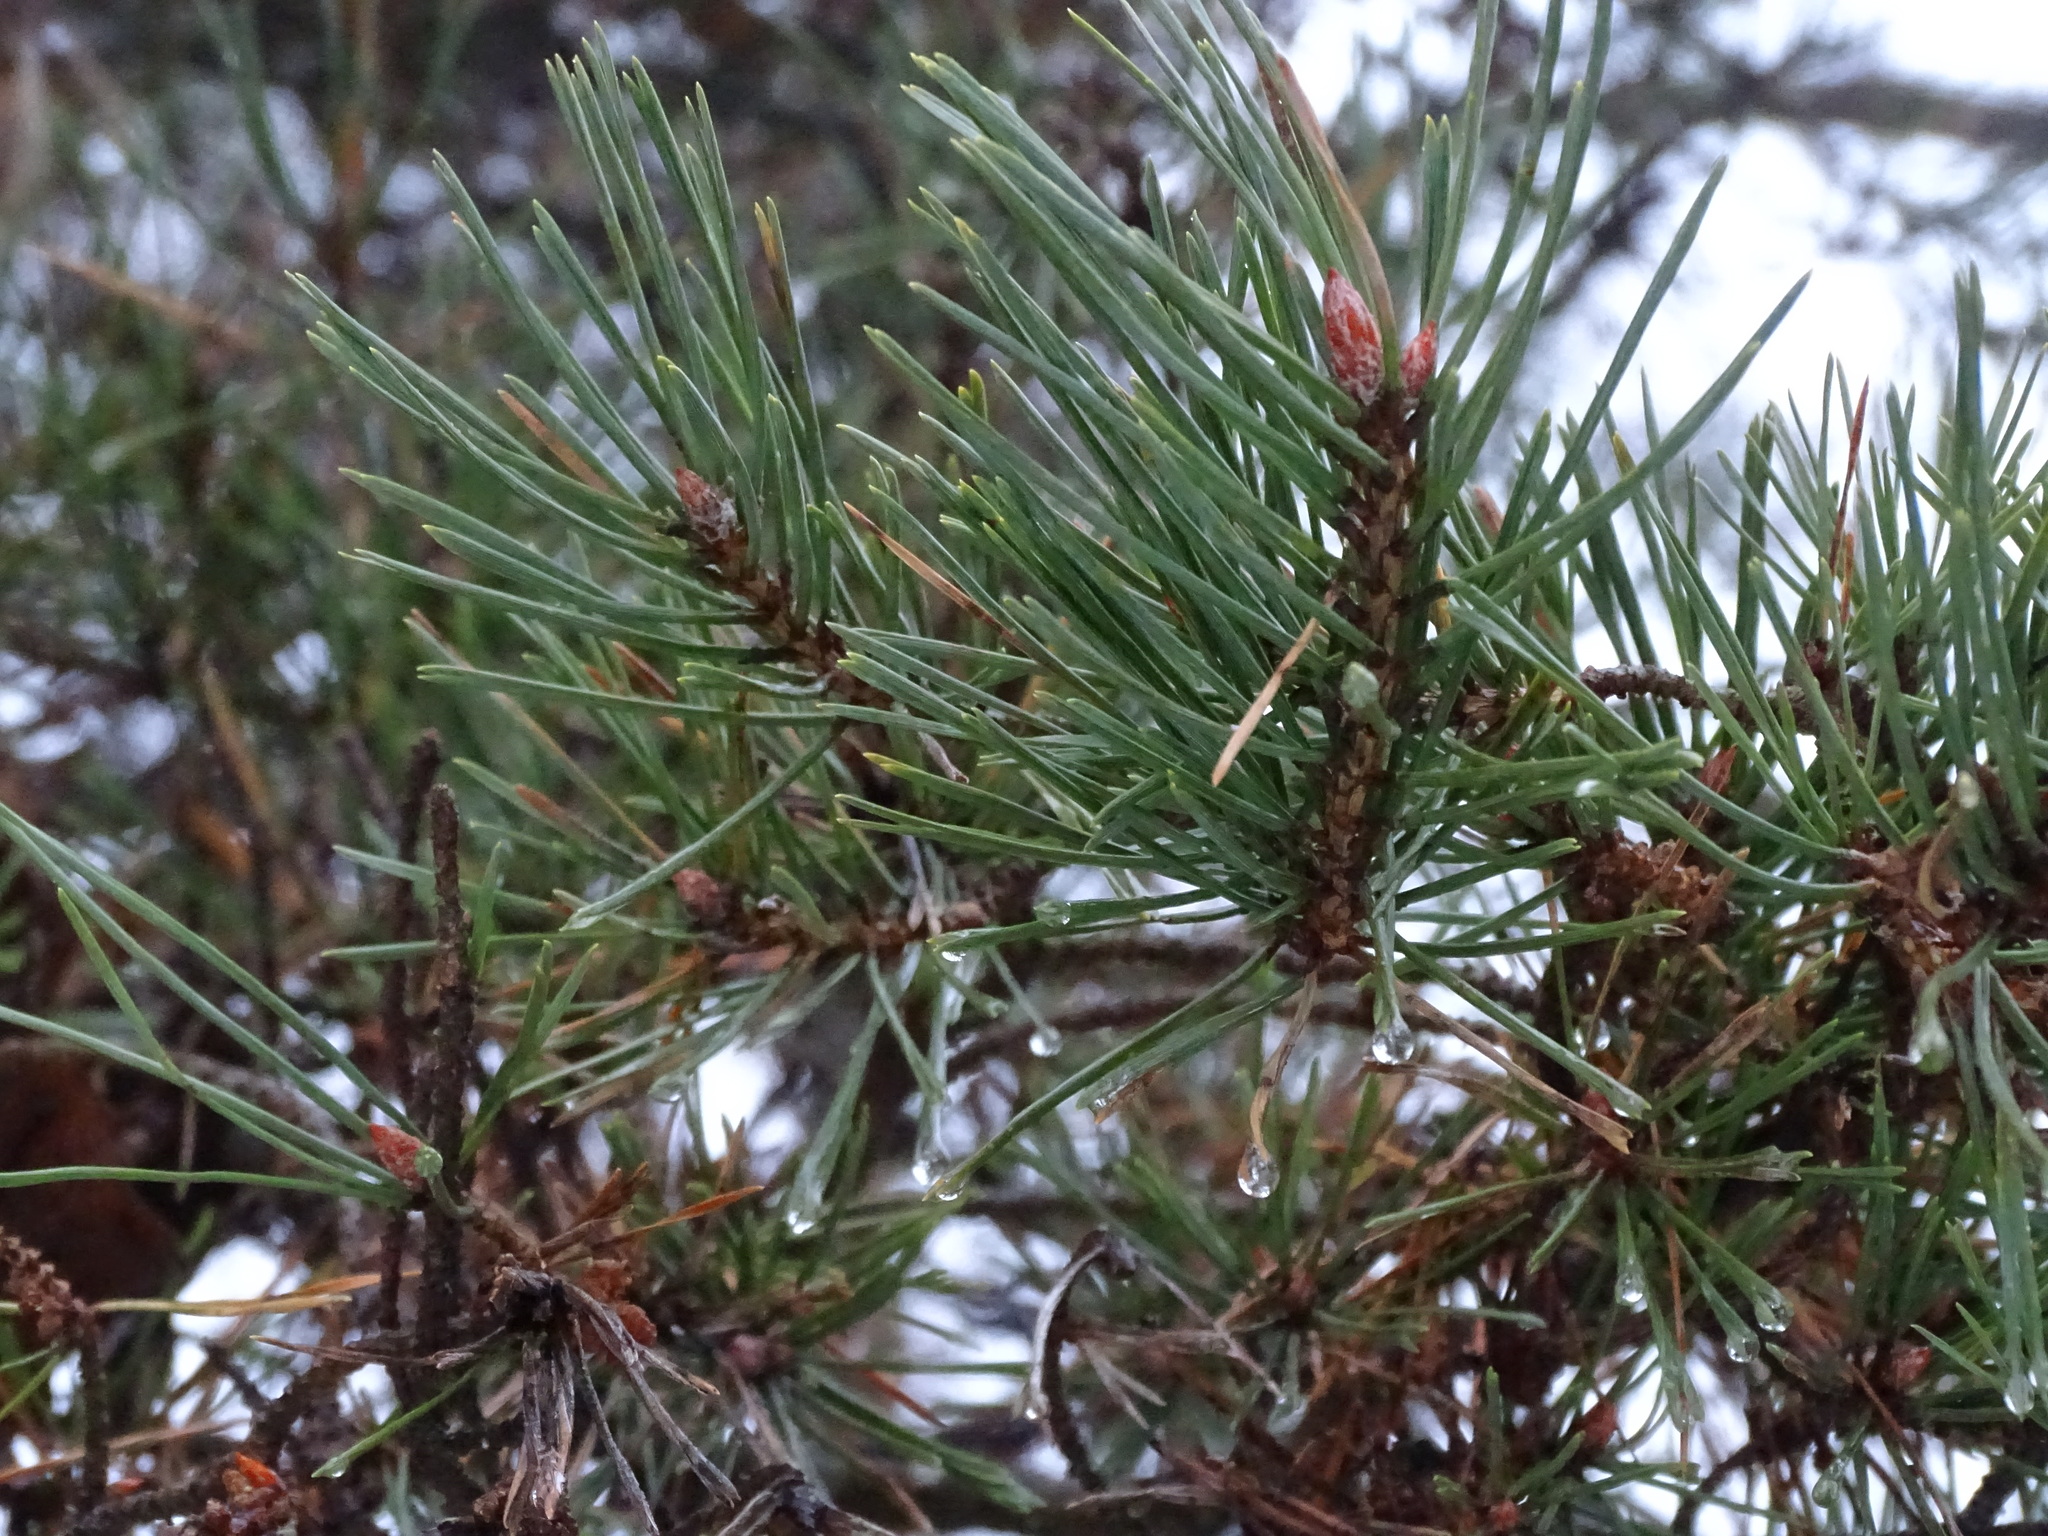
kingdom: Plantae
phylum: Tracheophyta
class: Pinopsida
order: Pinales
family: Pinaceae
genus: Pinus
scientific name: Pinus sylvestris
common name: Scots pine
